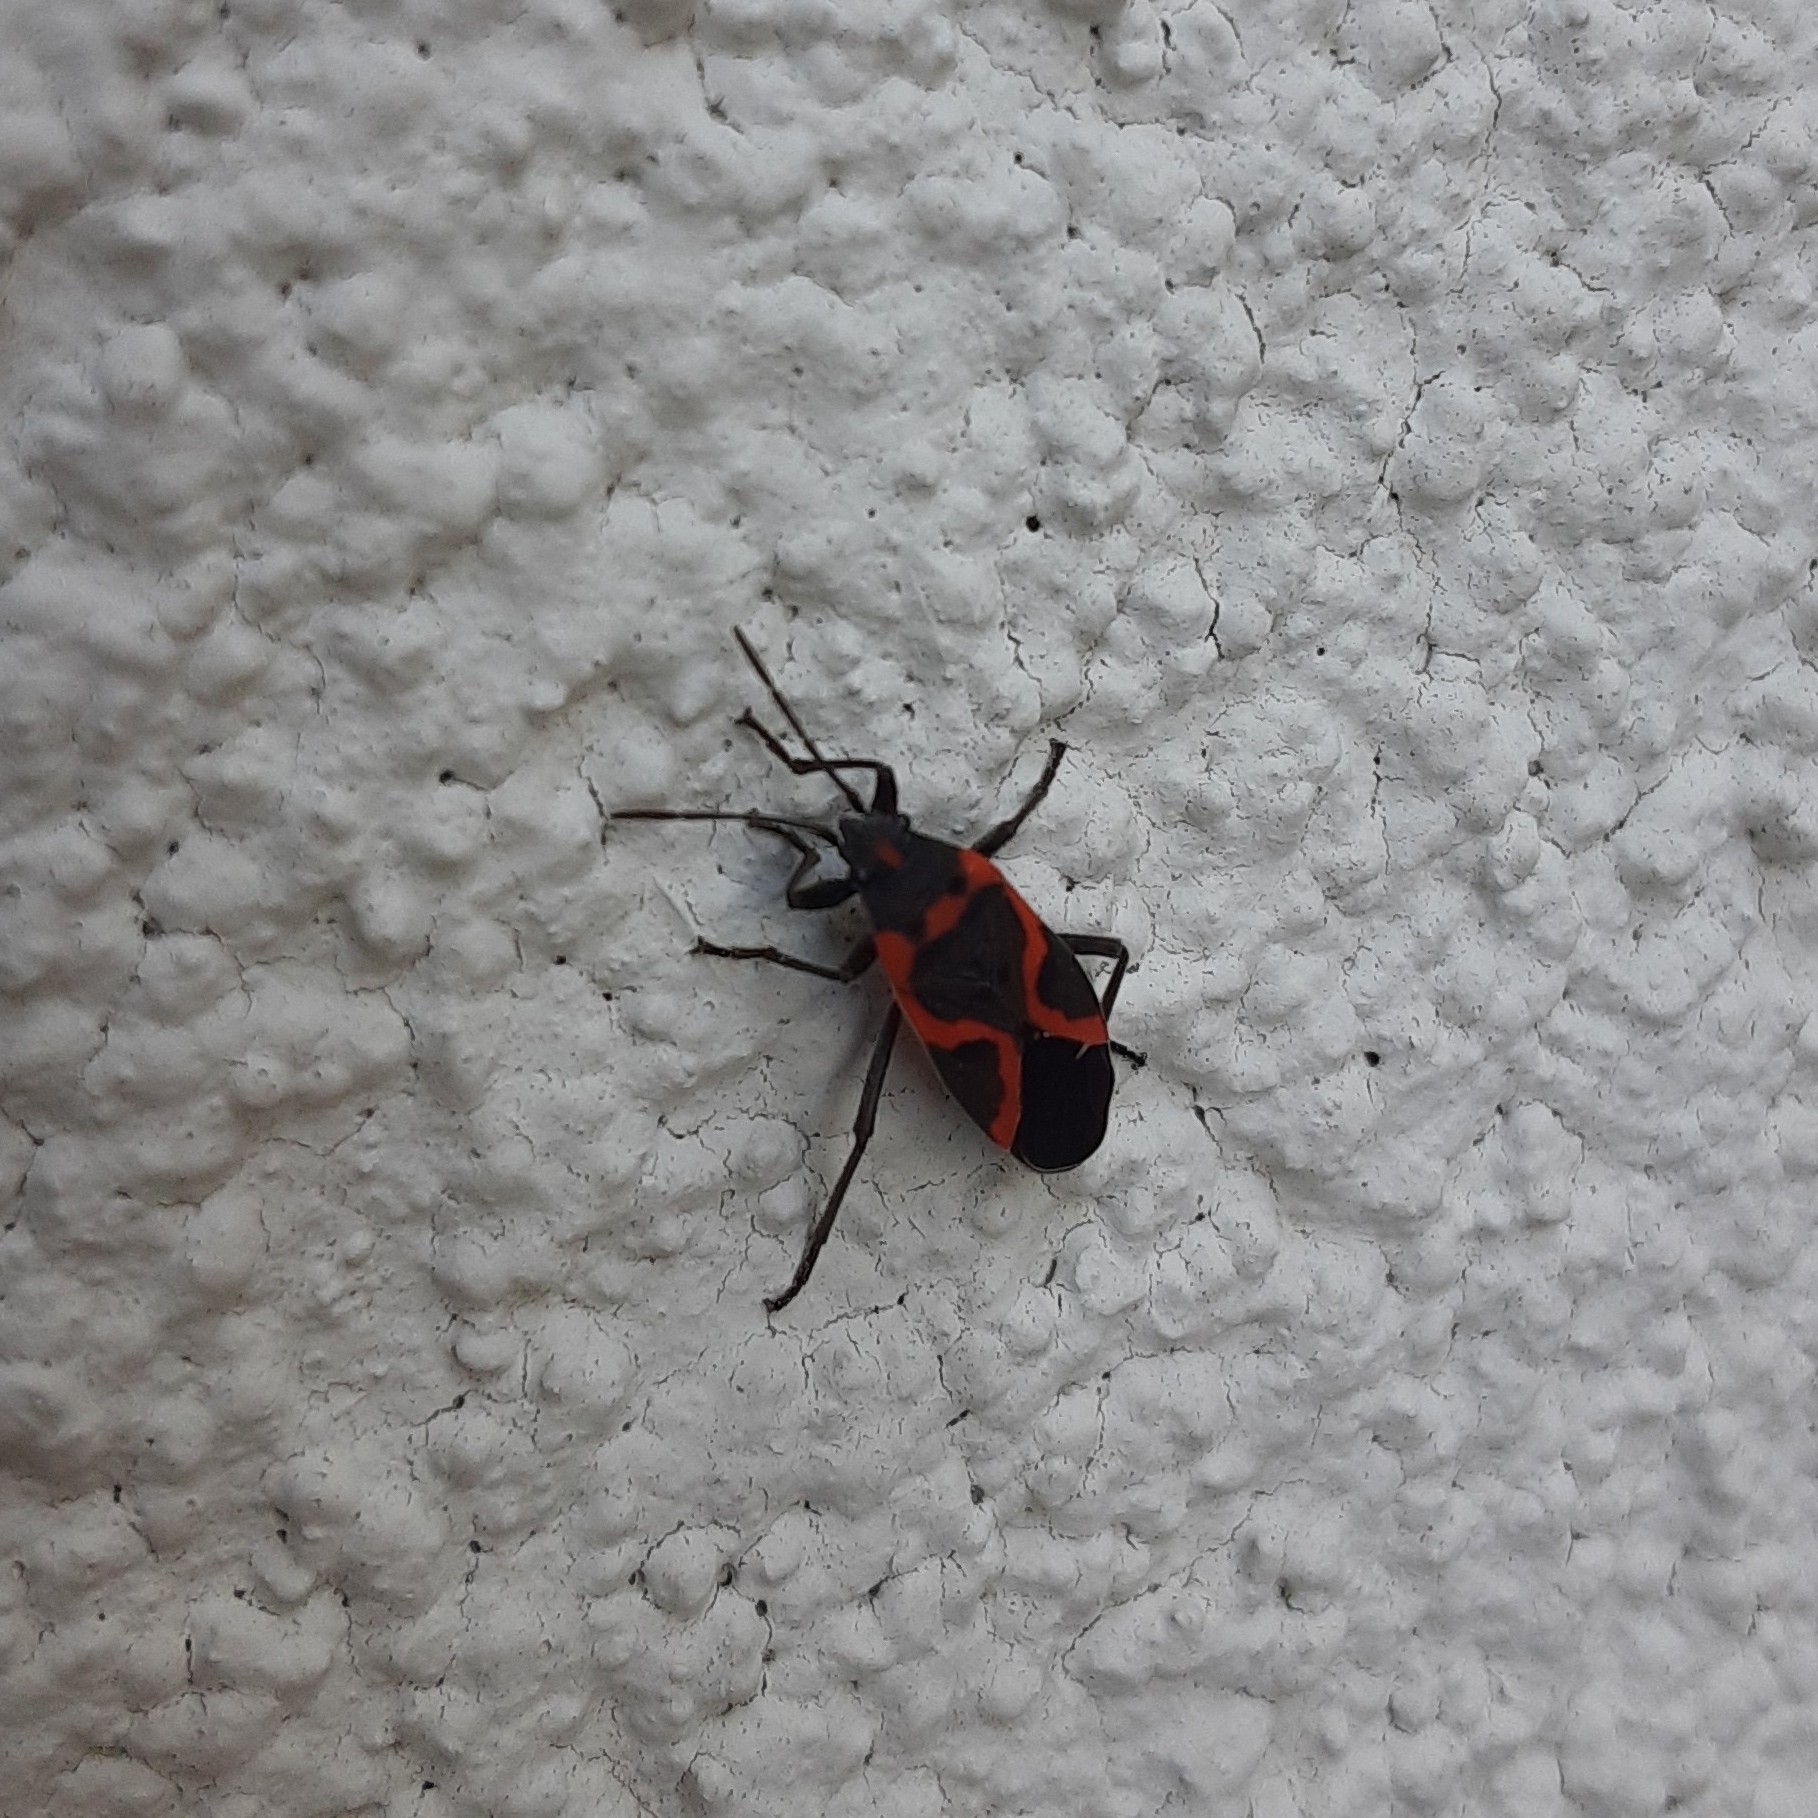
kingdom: Animalia
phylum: Arthropoda
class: Insecta
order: Hemiptera
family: Lygaeidae
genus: Lygaeus
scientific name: Lygaeus kalmii
